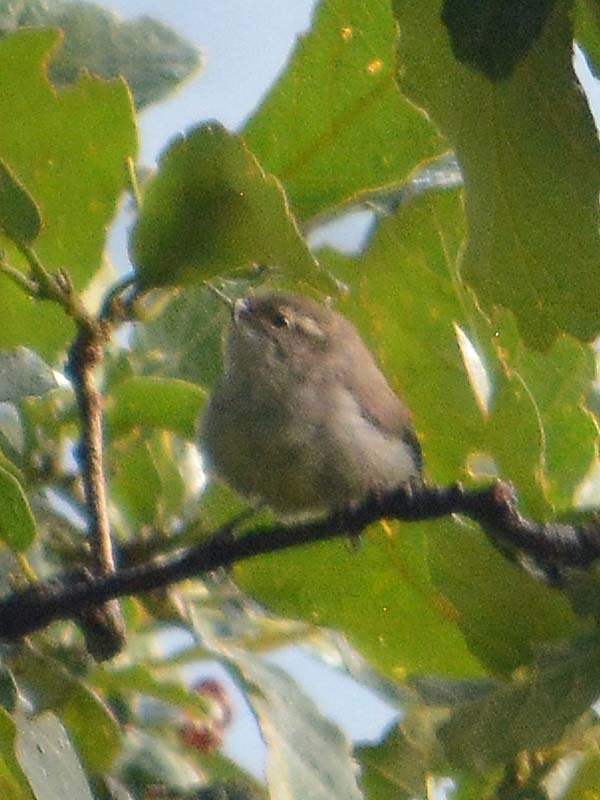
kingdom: Animalia
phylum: Chordata
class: Aves
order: Passeriformes
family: Troglodytidae
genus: Thryomanes
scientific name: Thryomanes bewickii
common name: Bewick's wren
